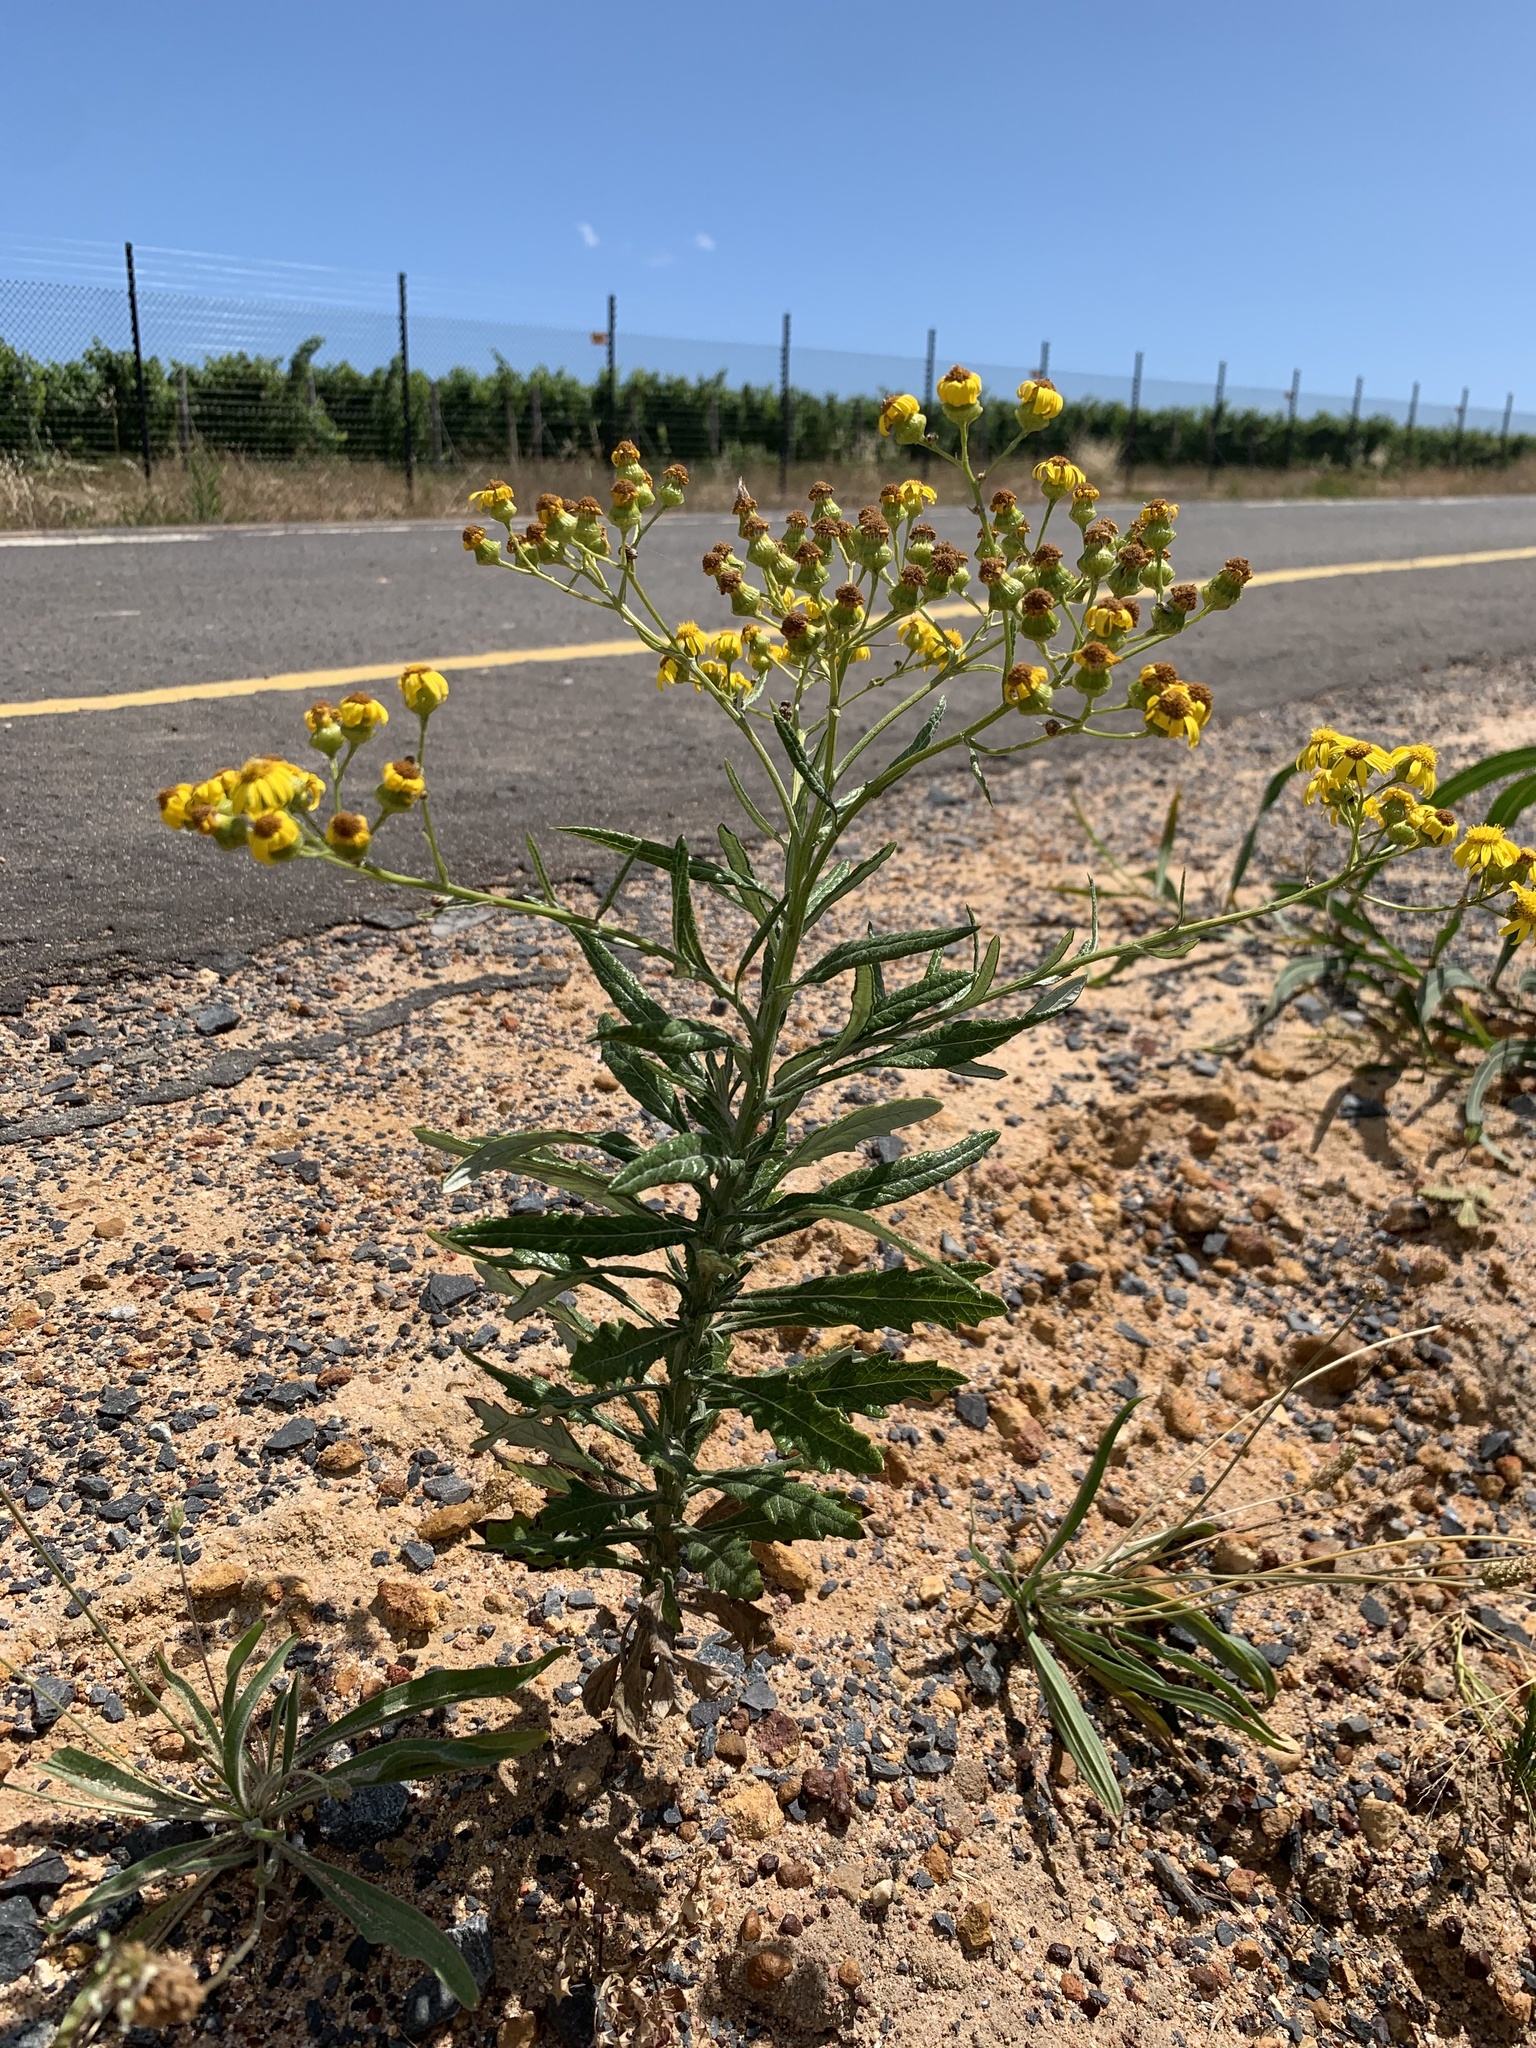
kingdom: Plantae
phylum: Tracheophyta
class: Magnoliopsida
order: Asterales
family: Asteraceae
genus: Senecio
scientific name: Senecio pterophorus
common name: Shoddy ragwort
